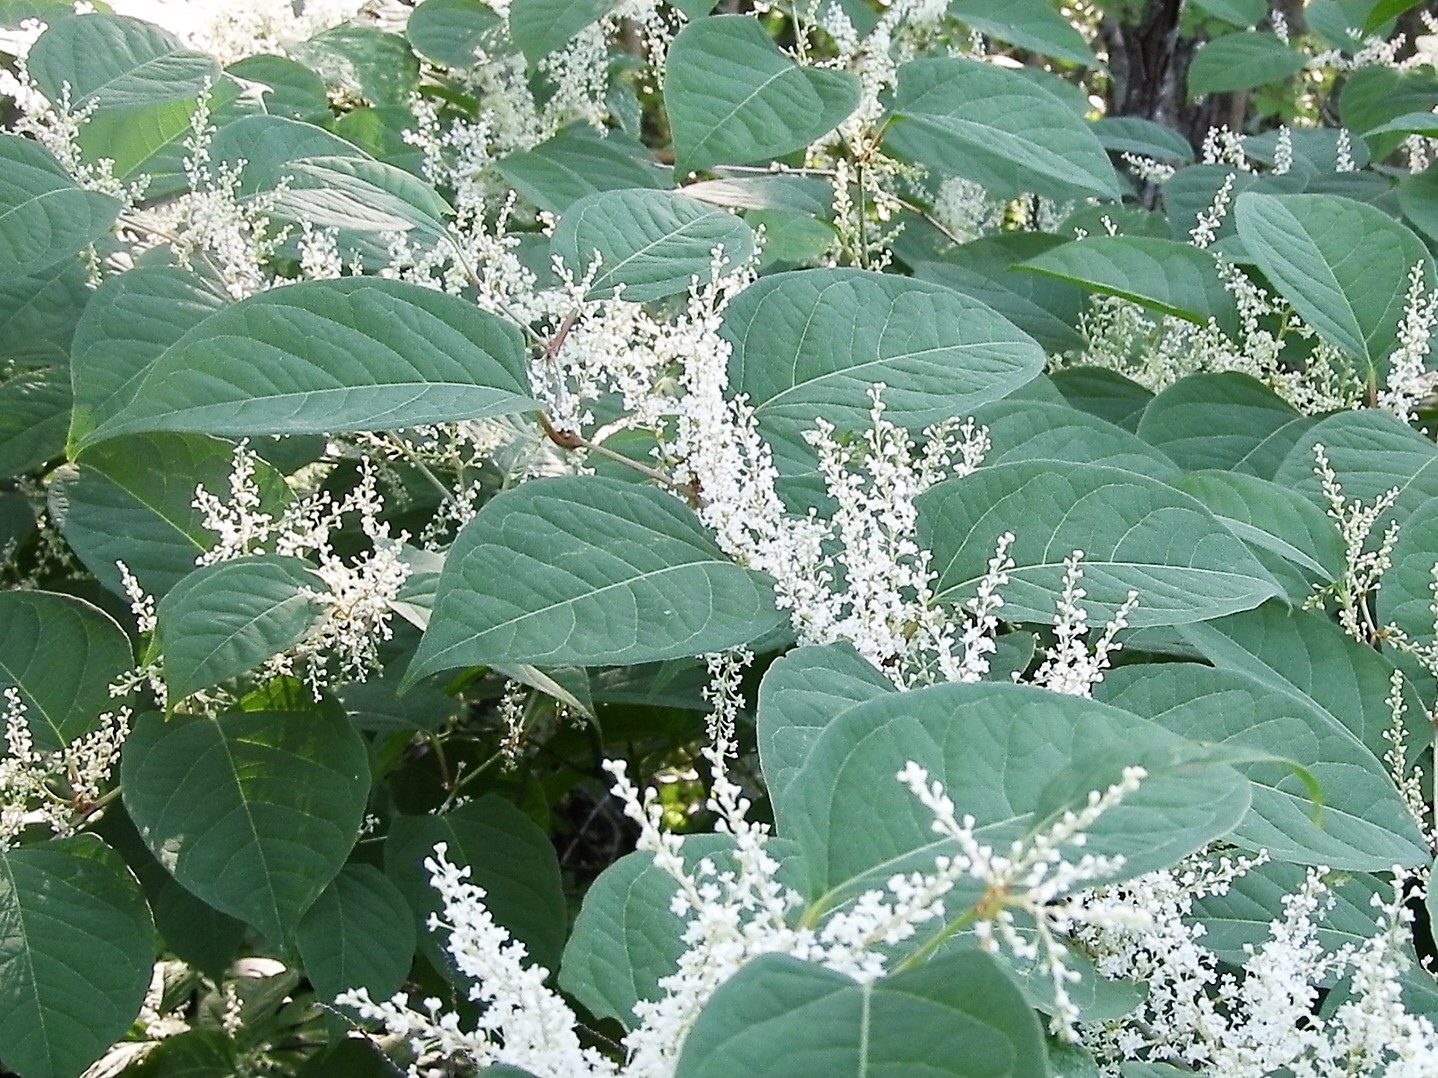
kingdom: Plantae
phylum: Tracheophyta
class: Magnoliopsida
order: Caryophyllales
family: Polygonaceae
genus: Reynoutria
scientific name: Reynoutria japonica
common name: Japanese knotweed
